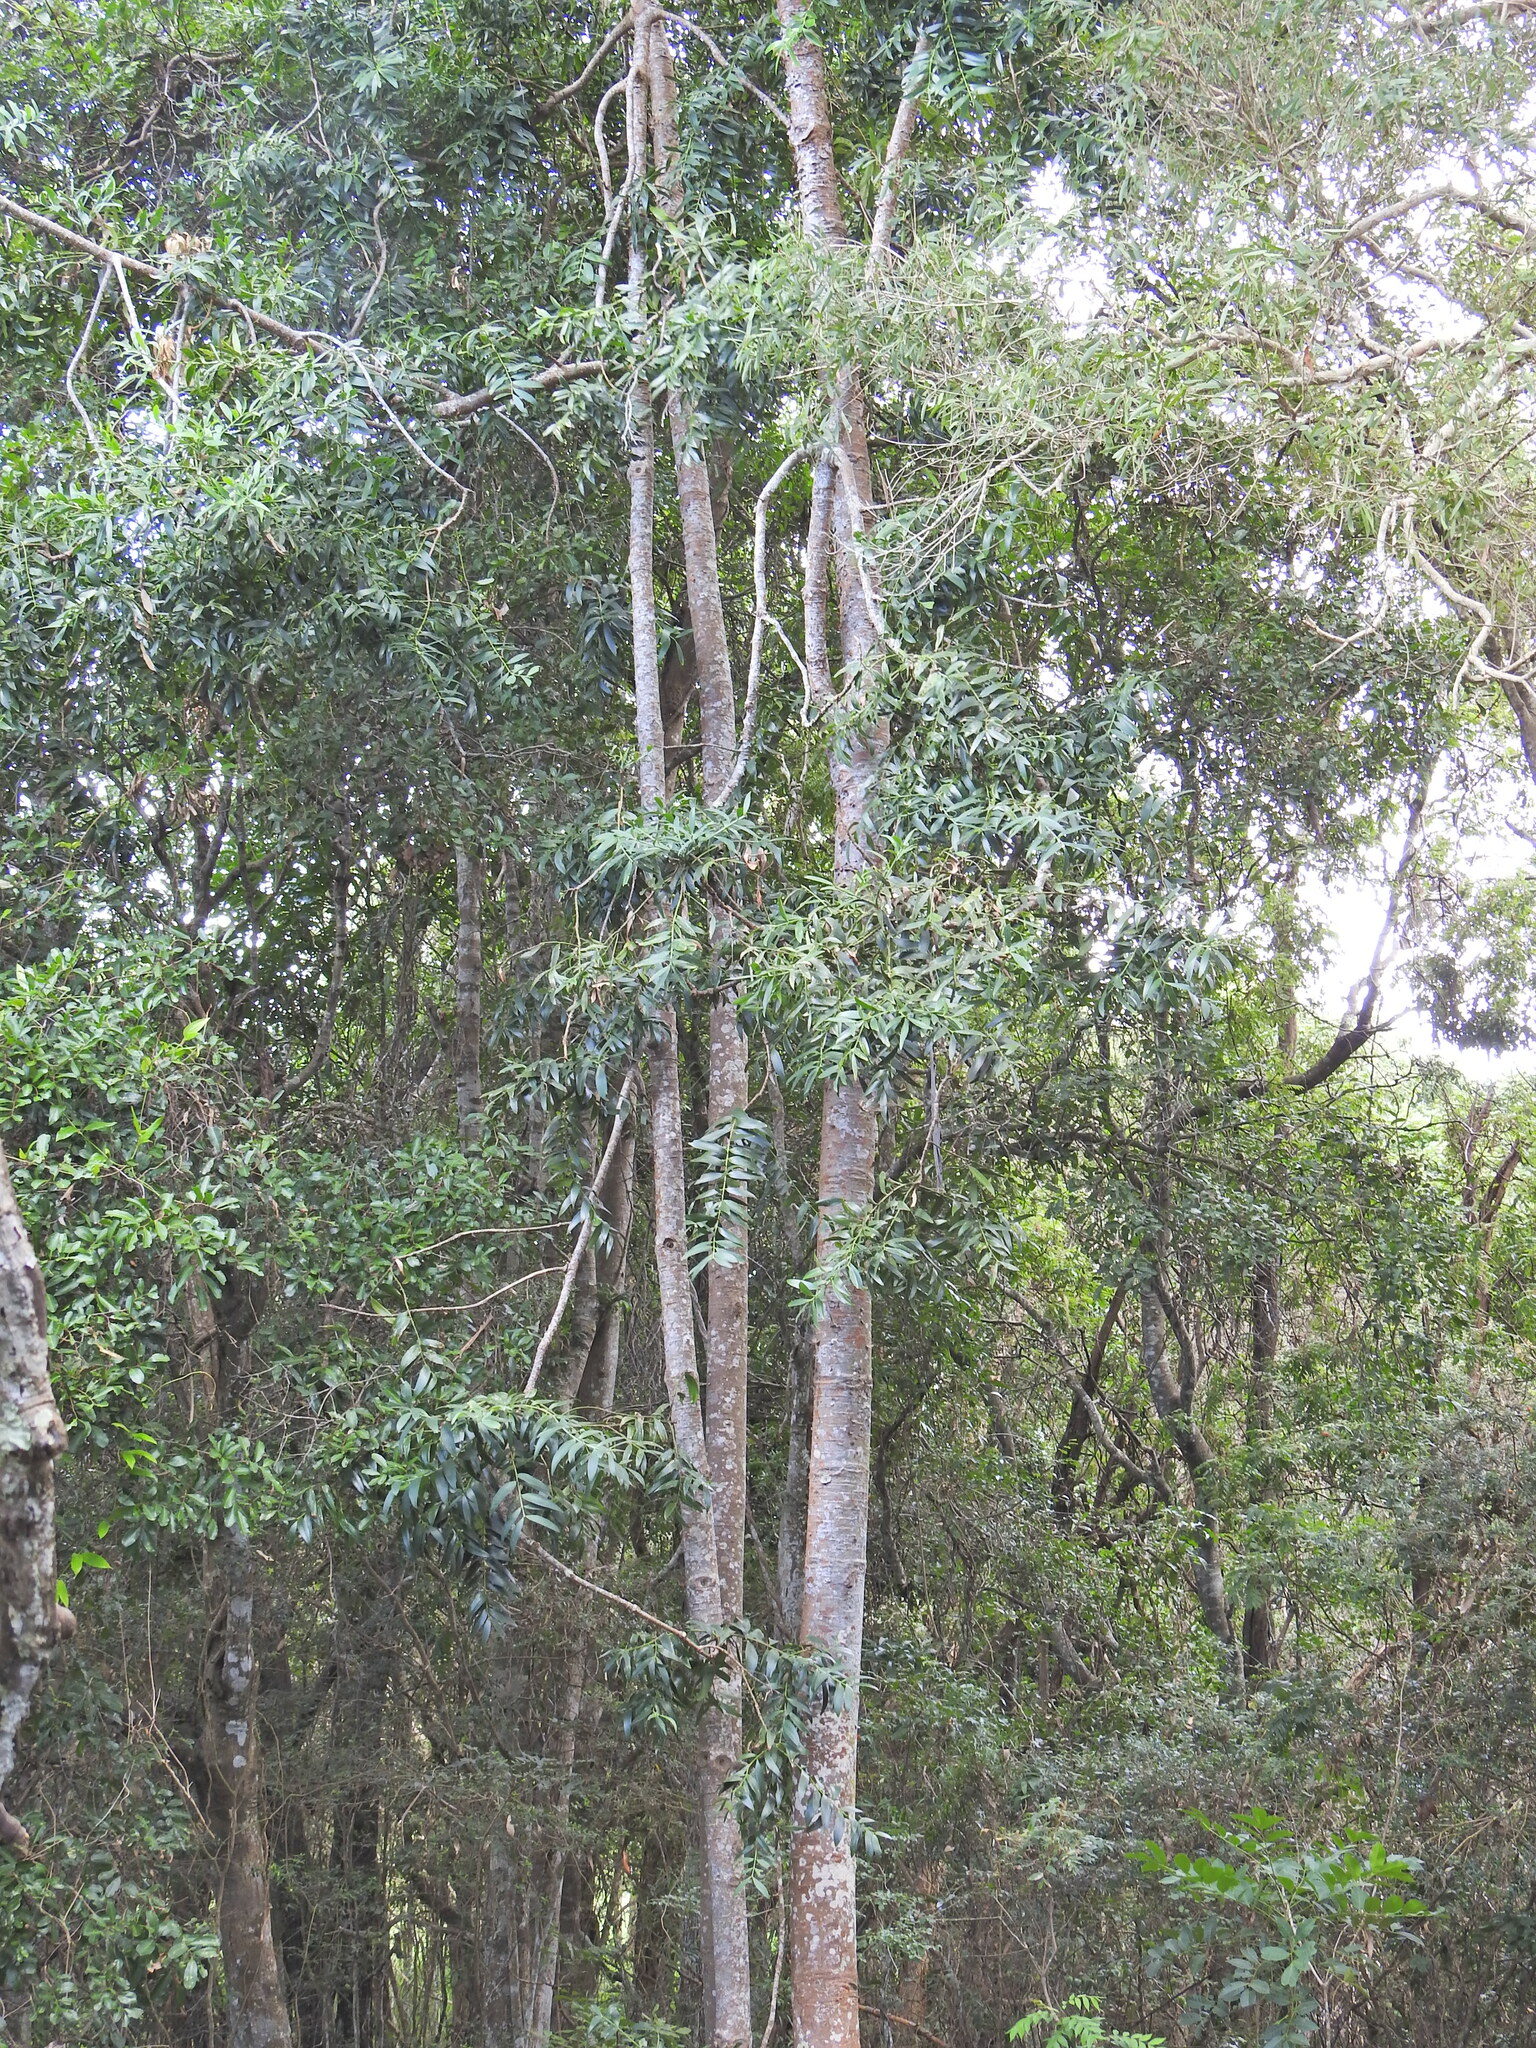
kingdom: Plantae
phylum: Tracheophyta
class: Pinopsida
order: Pinales
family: Araucariaceae
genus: Agathis
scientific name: Agathis robusta
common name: Australian-kauri
